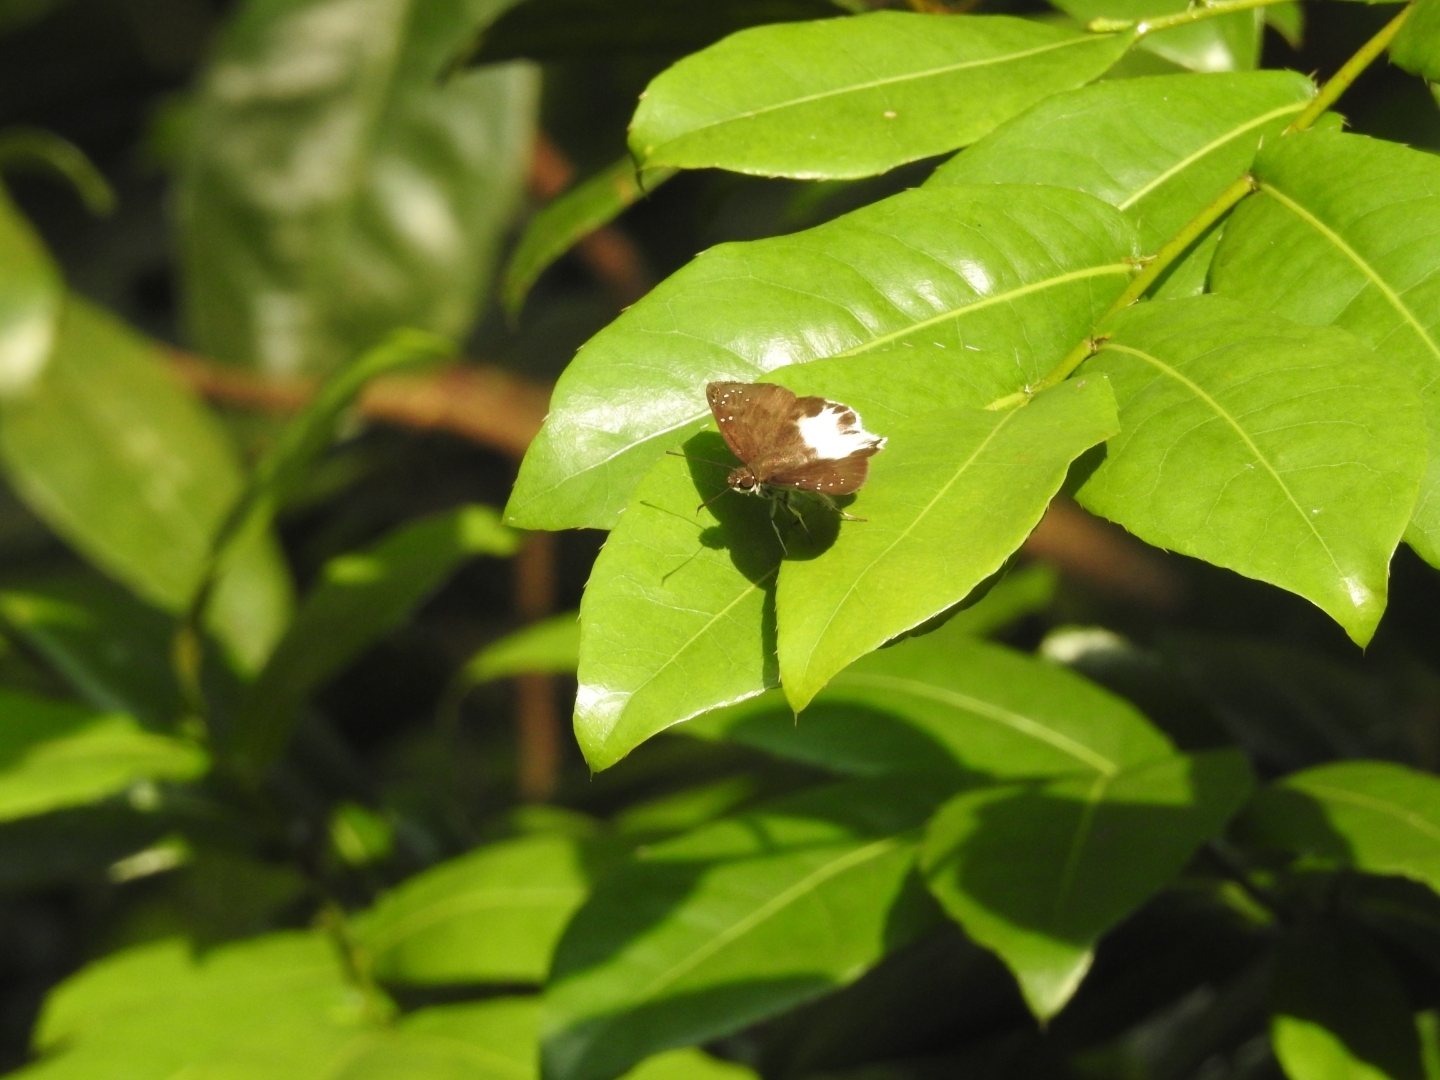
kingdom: Animalia
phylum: Arthropoda
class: Insecta
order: Lepidoptera
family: Hesperiidae
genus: Tagiades
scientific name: Tagiades litigiosa
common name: Water snow flat
